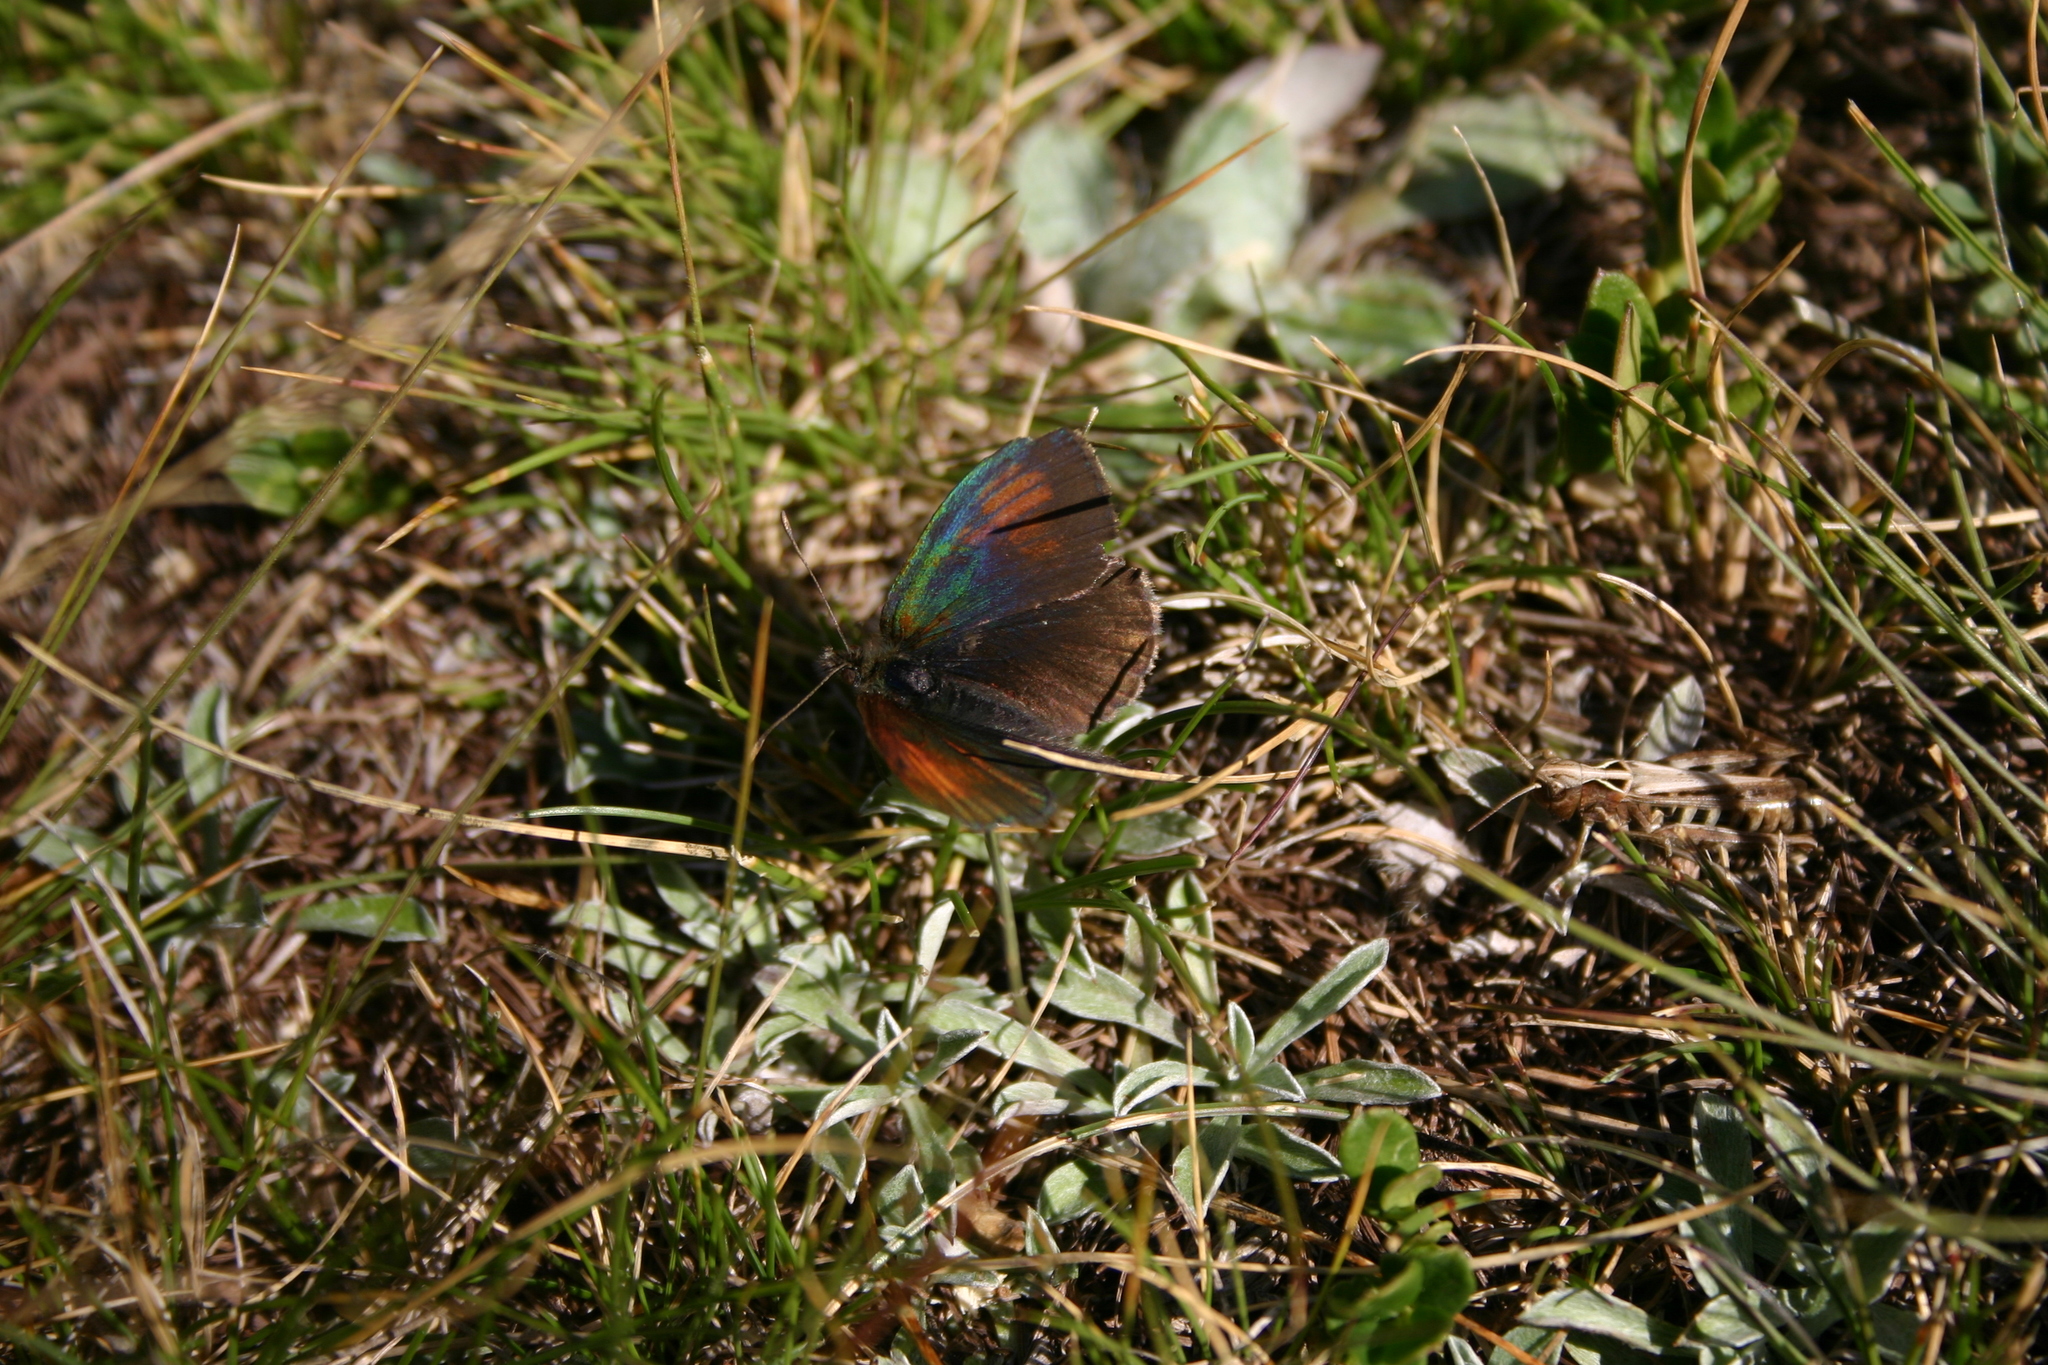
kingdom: Animalia
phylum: Arthropoda
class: Insecta
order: Lepidoptera
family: Nymphalidae
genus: Erebia
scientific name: Erebia tyndarus
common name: Swiss brassy ringlet
